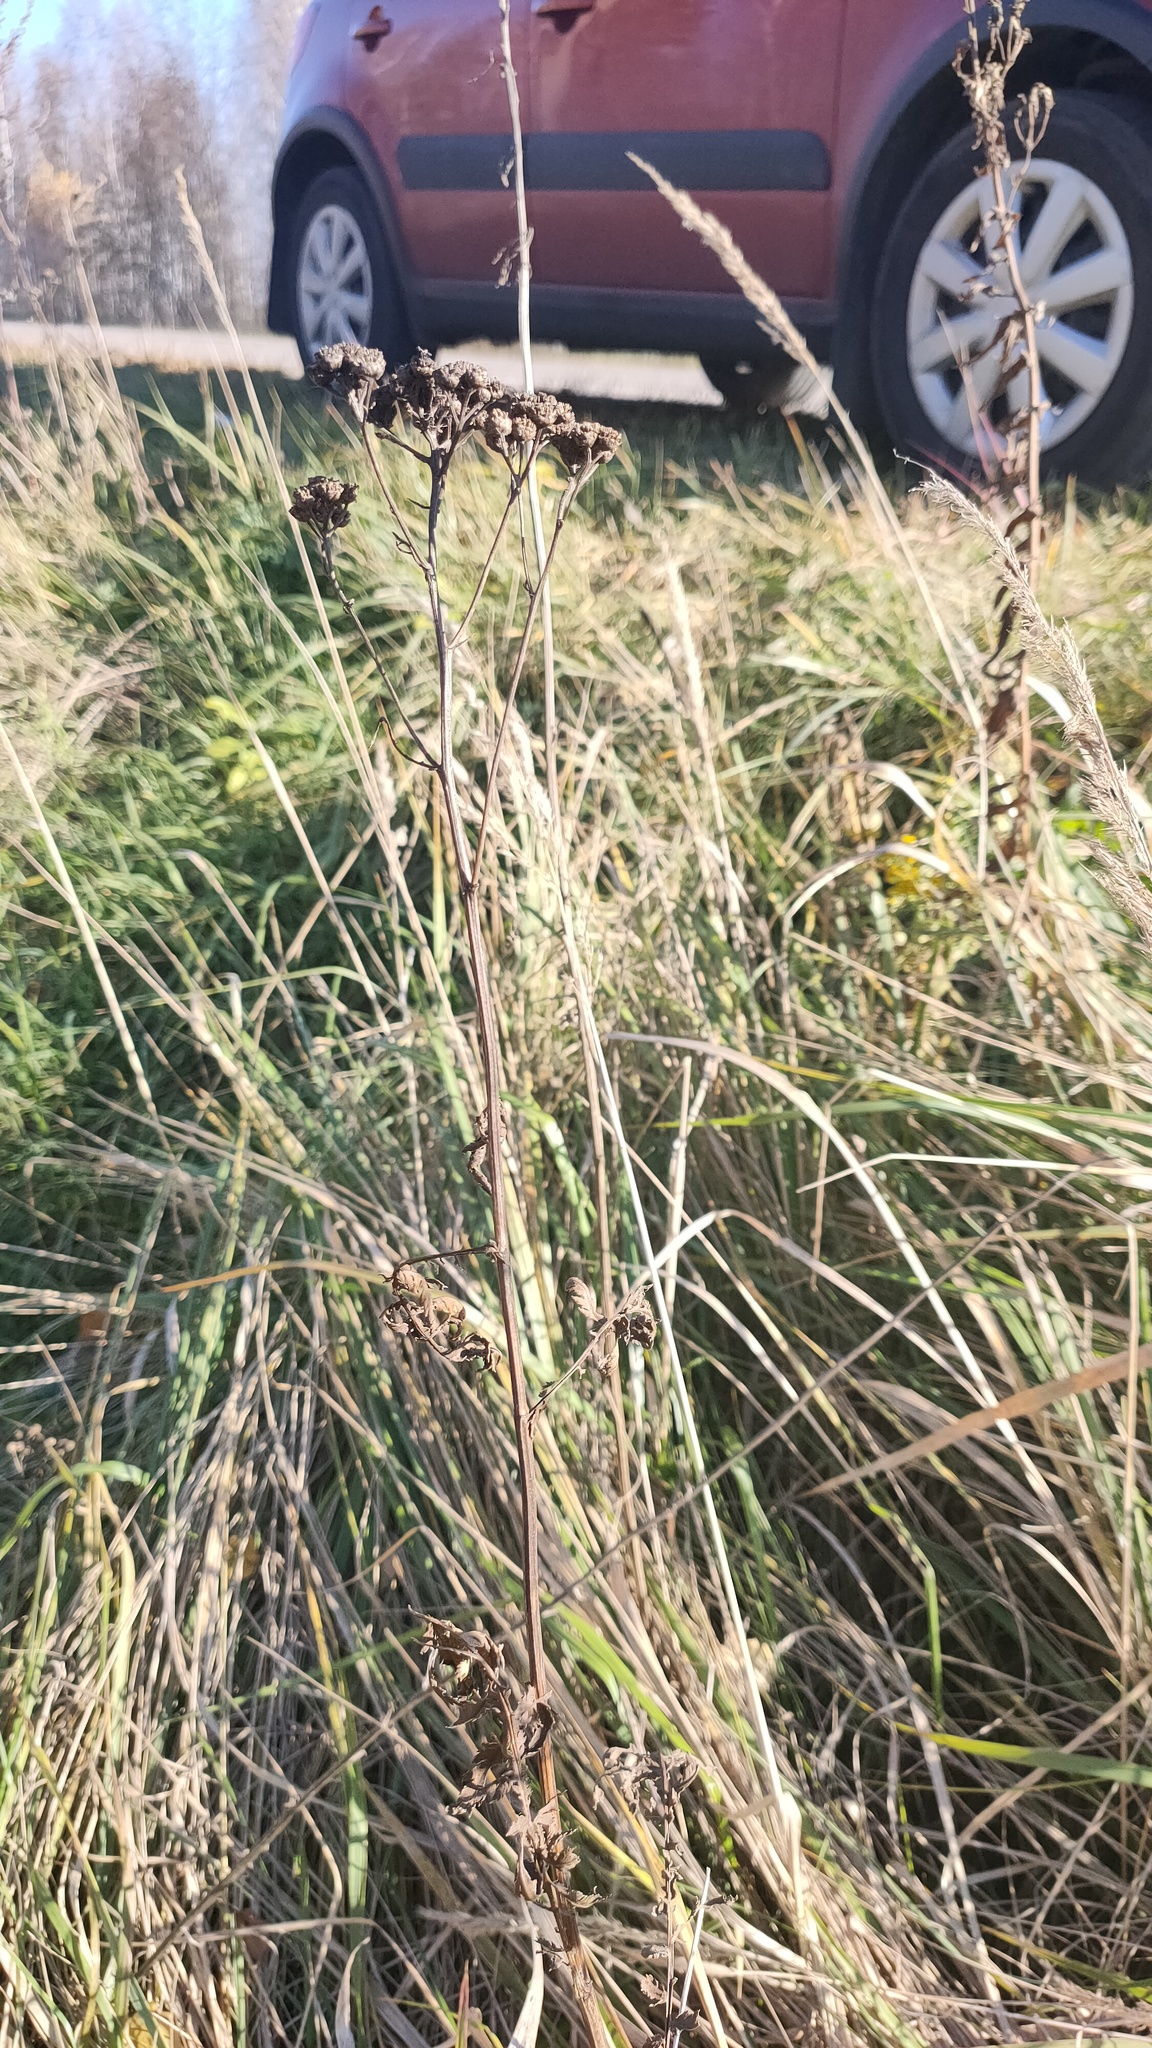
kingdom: Plantae
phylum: Tracheophyta
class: Magnoliopsida
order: Asterales
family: Asteraceae
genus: Tanacetum
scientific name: Tanacetum vulgare
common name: Common tansy
